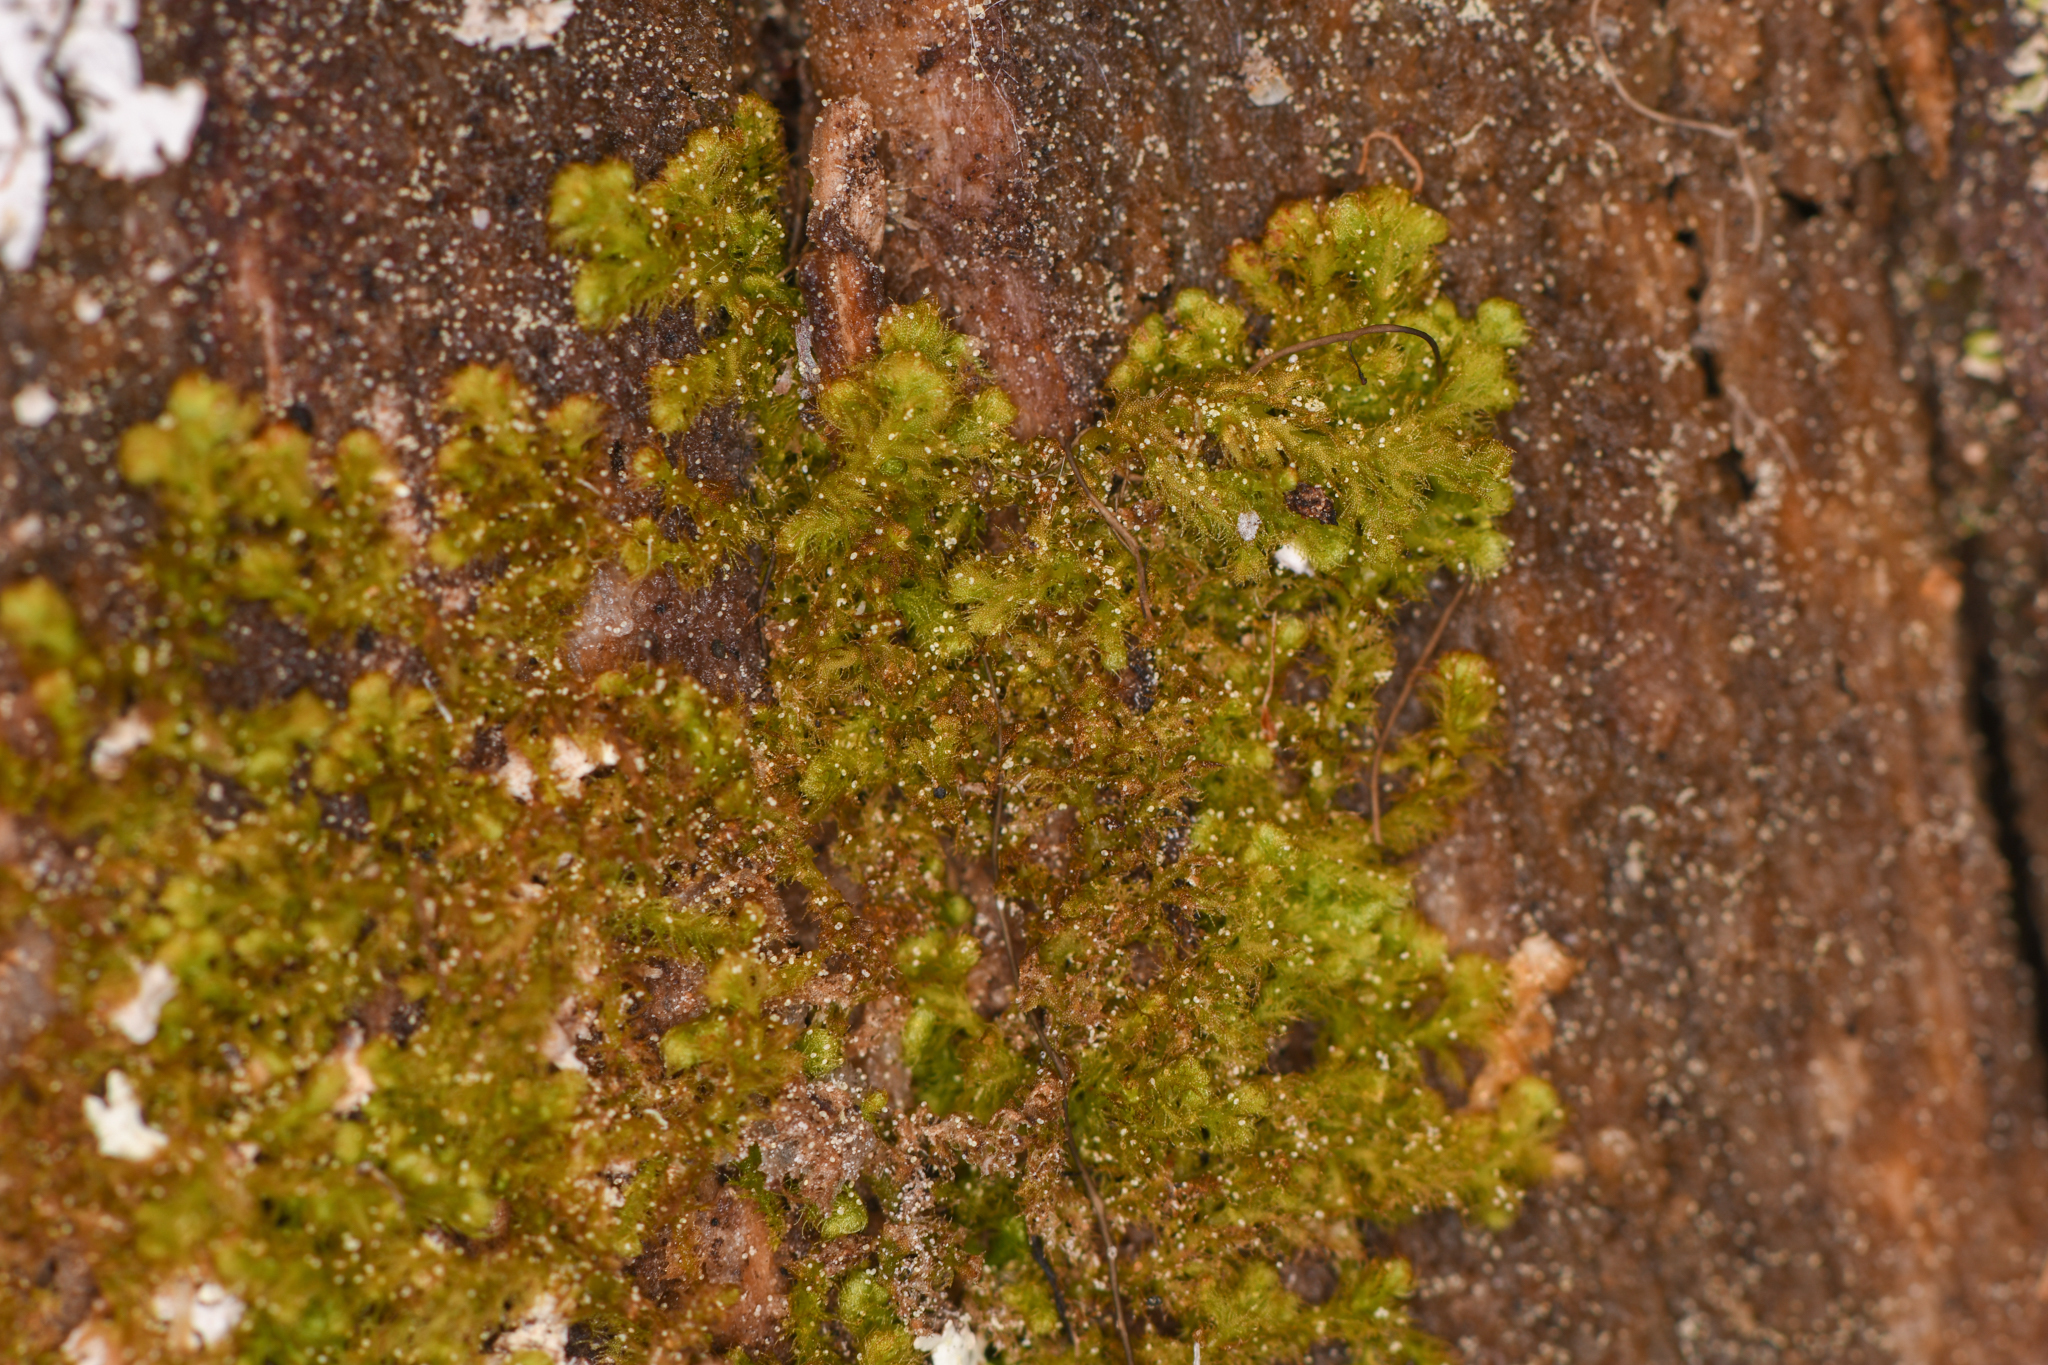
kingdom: Plantae
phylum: Marchantiophyta
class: Jungermanniopsida
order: Ptilidiales
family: Ptilidiaceae
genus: Ptilidium
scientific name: Ptilidium pulcherrimum
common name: Tree fringewort
